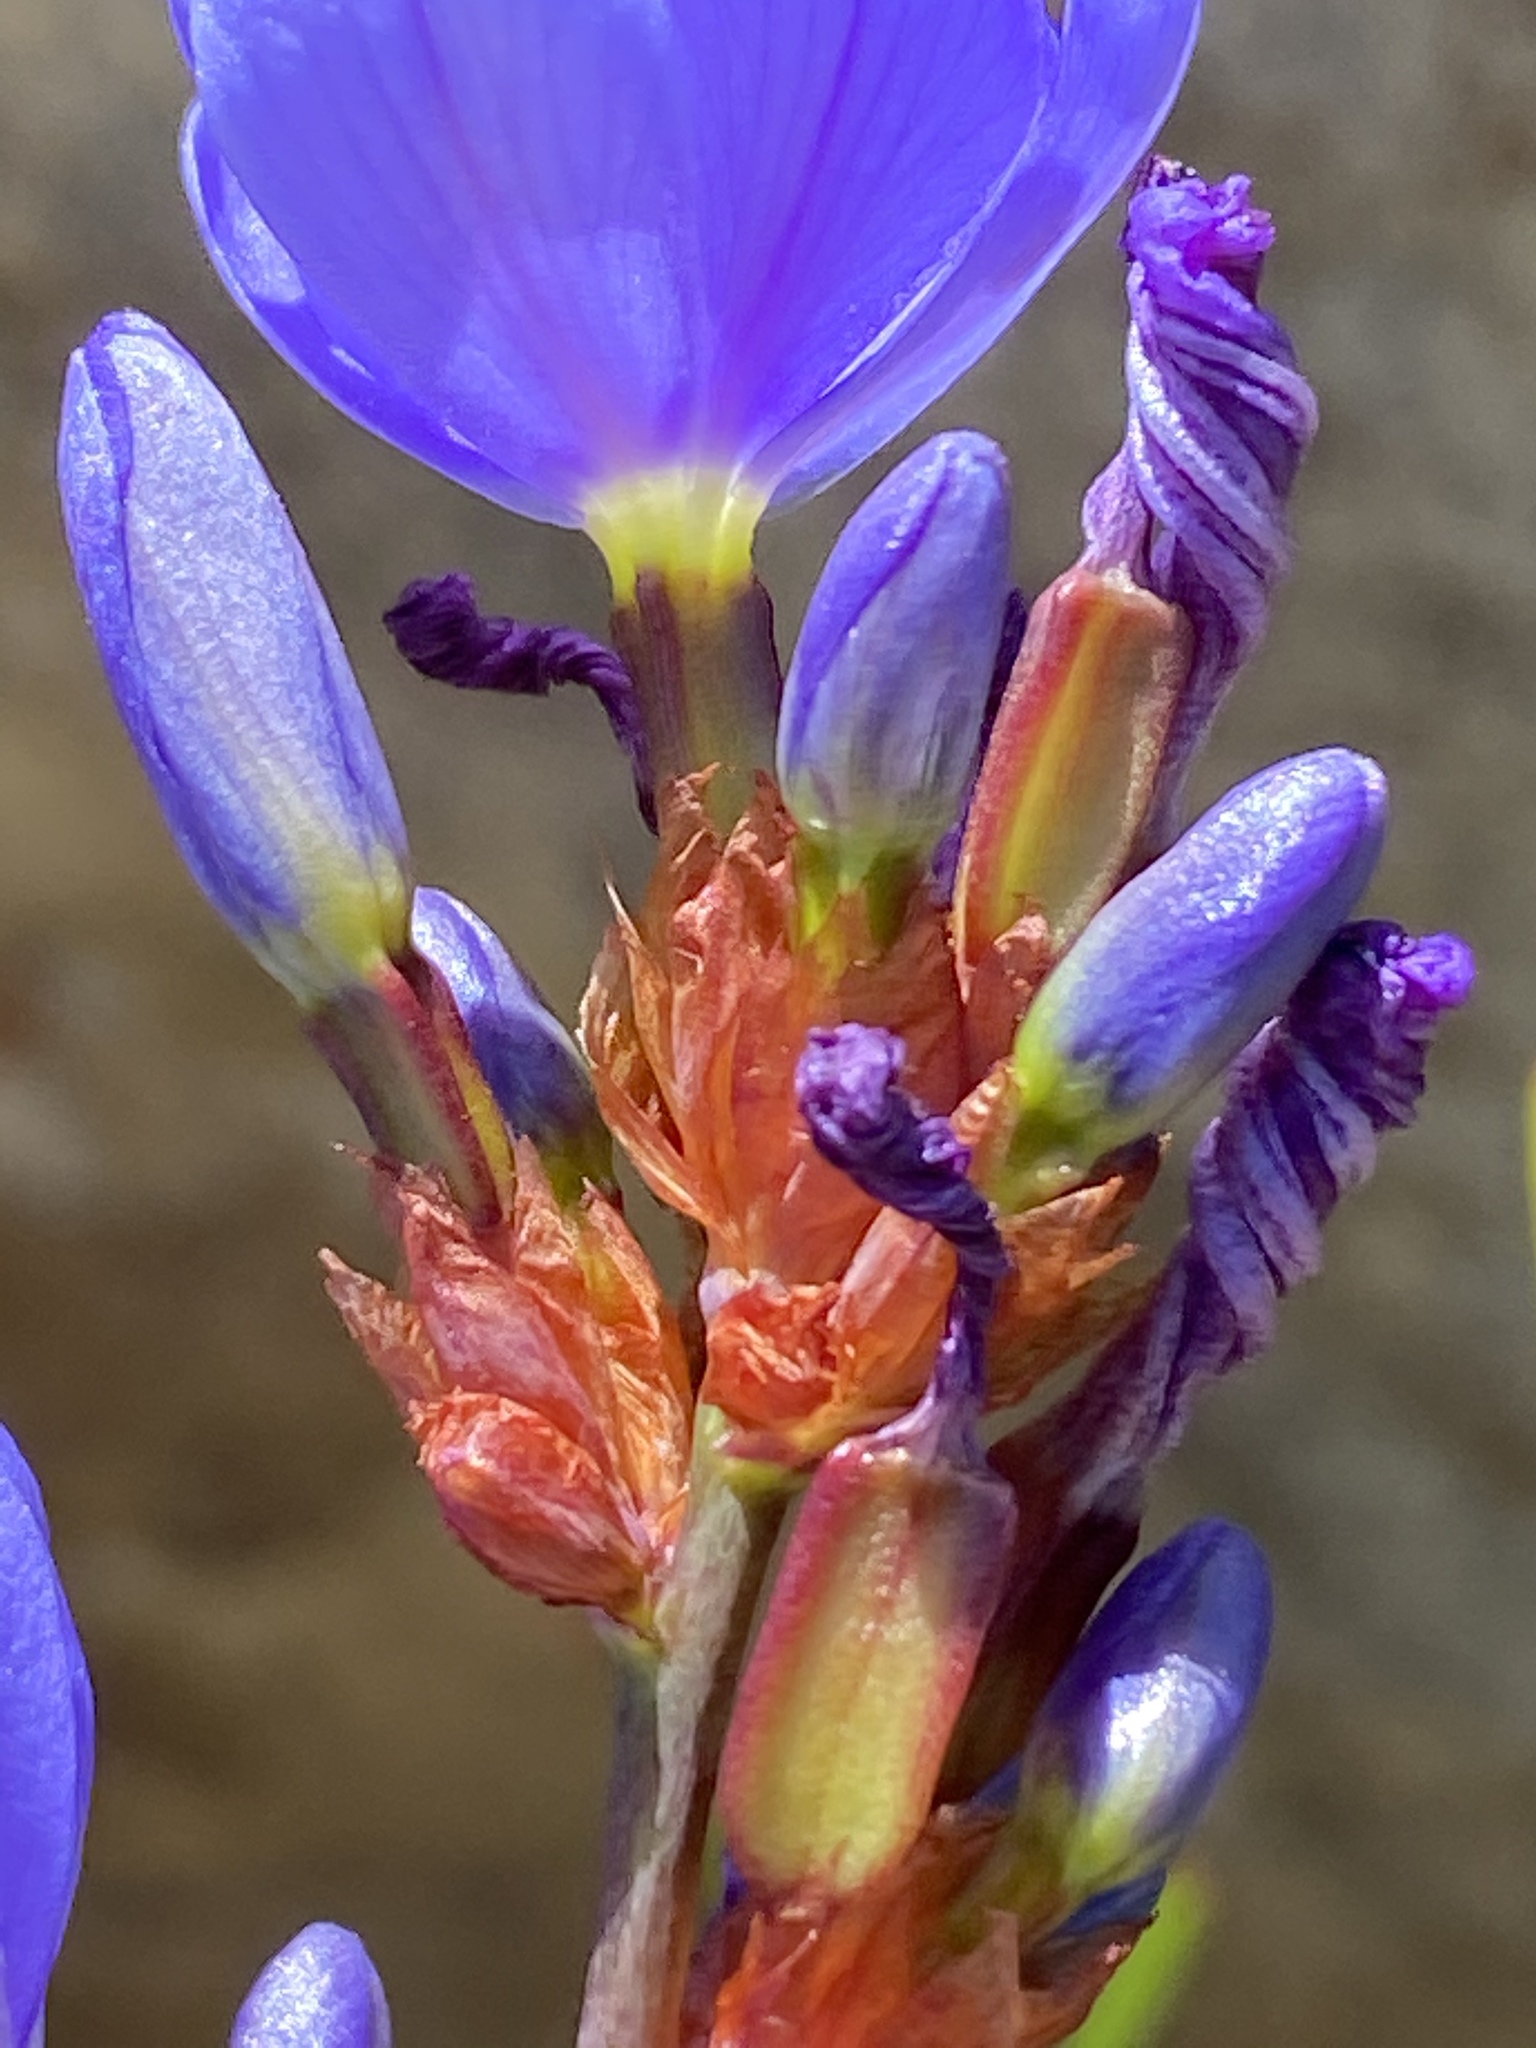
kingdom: Plantae
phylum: Tracheophyta
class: Liliopsida
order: Asparagales
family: Iridaceae
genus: Aristea
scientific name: Aristea bakeri
